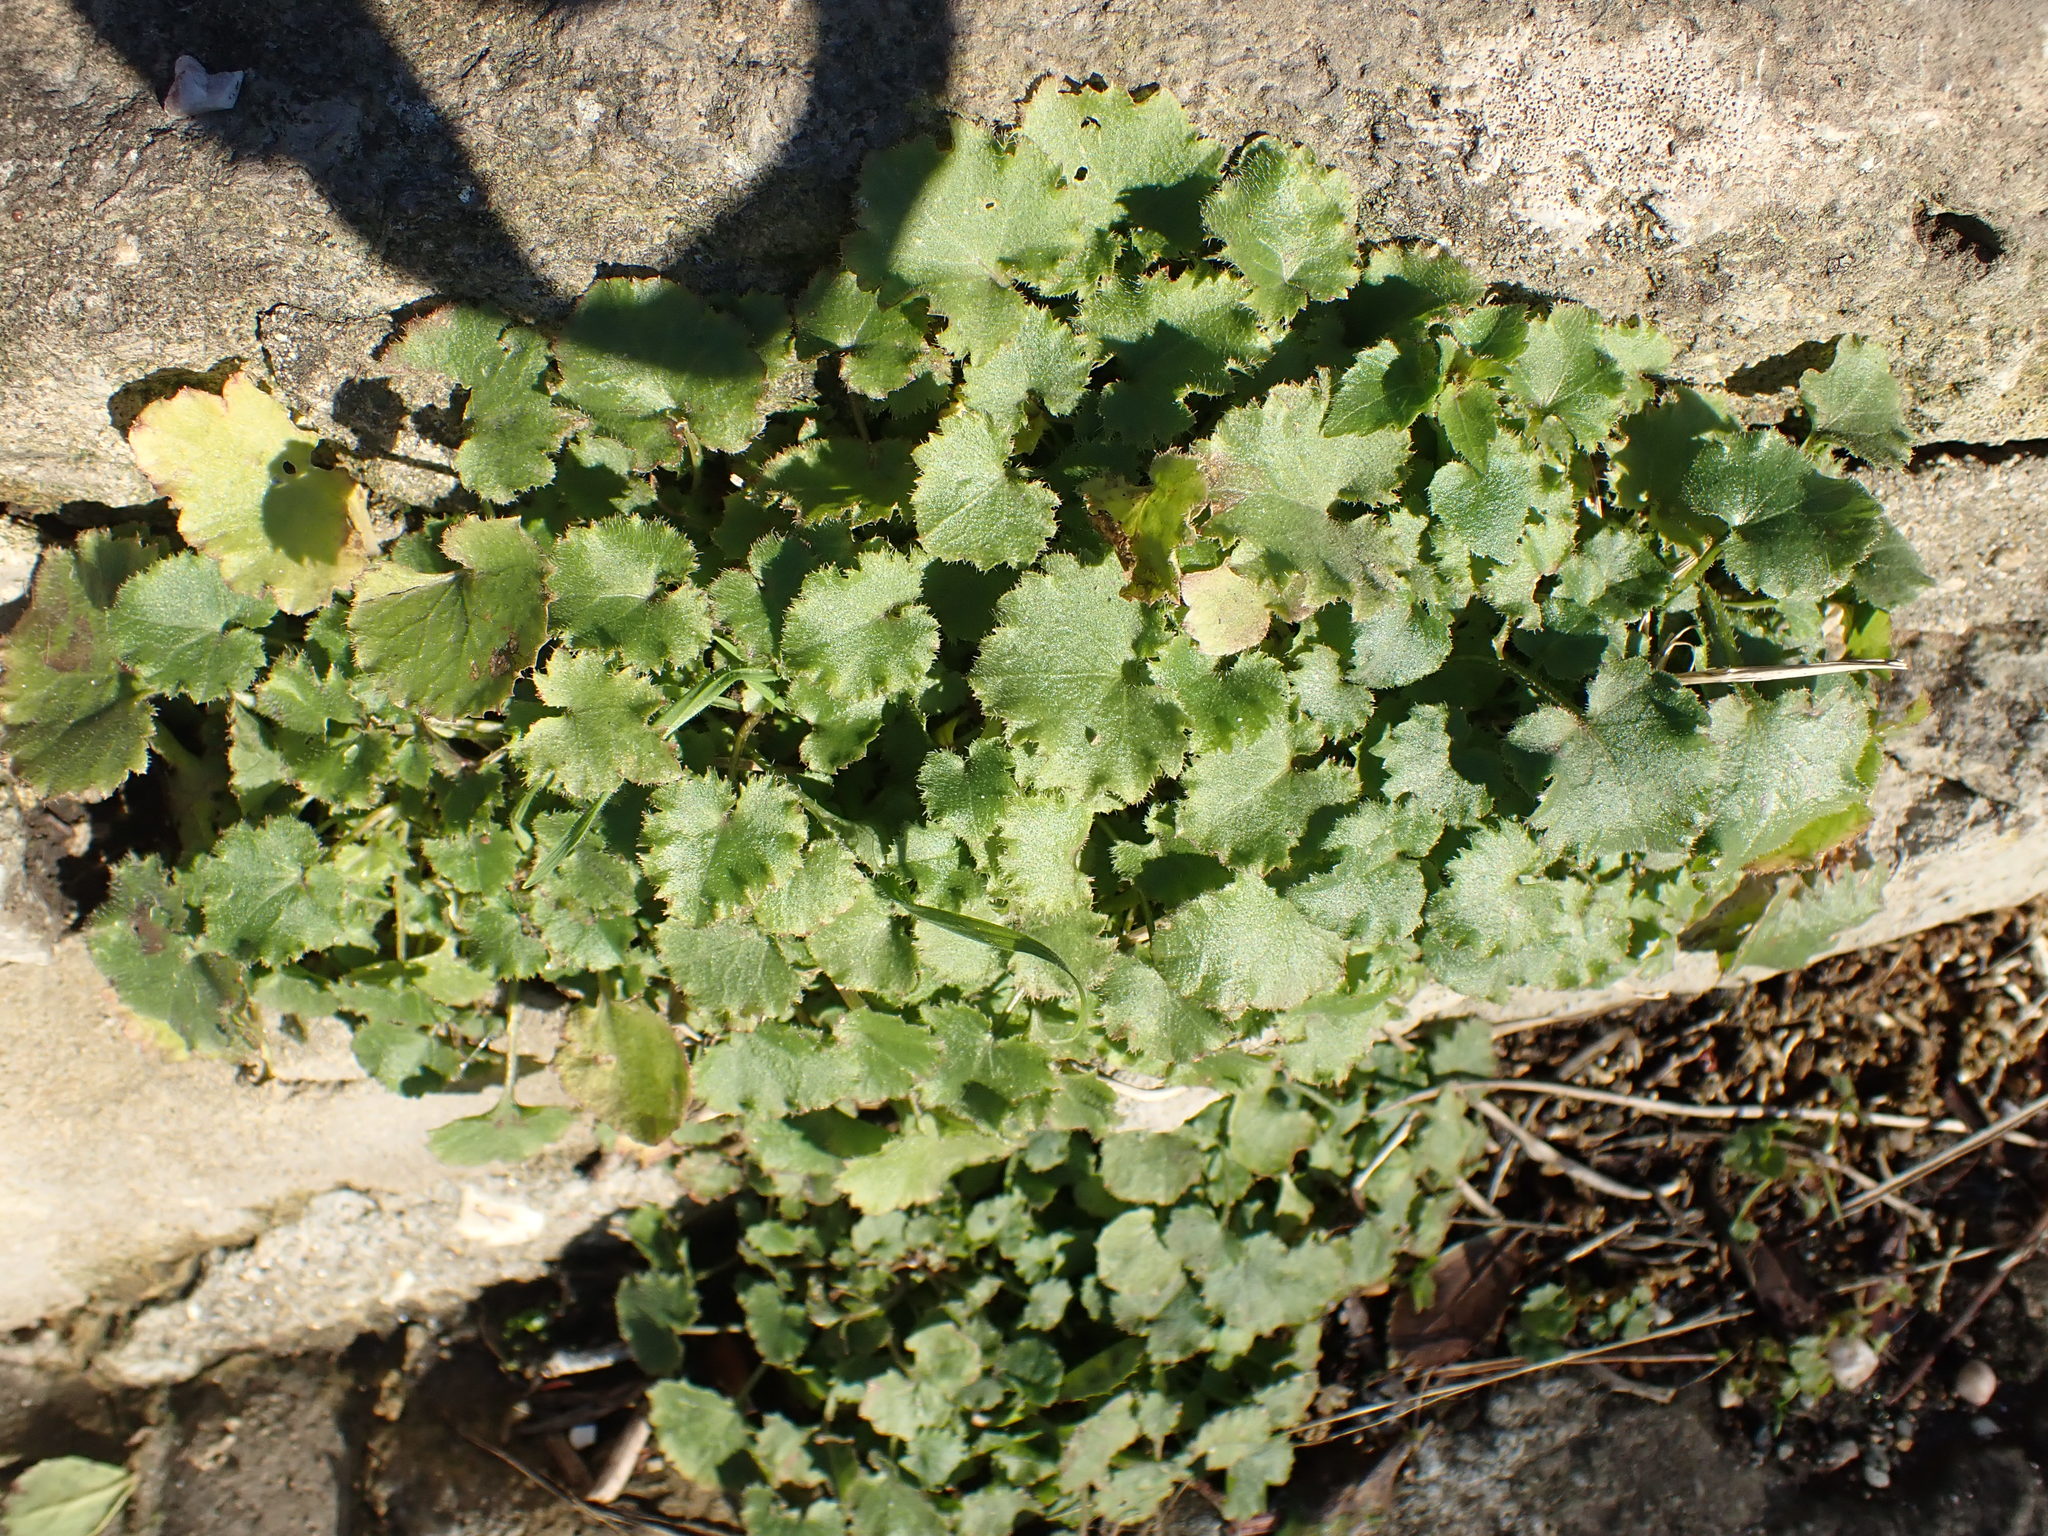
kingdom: Plantae
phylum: Tracheophyta
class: Magnoliopsida
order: Asterales
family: Campanulaceae
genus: Campanula
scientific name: Campanula poscharskyana
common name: Trailing bellflower
